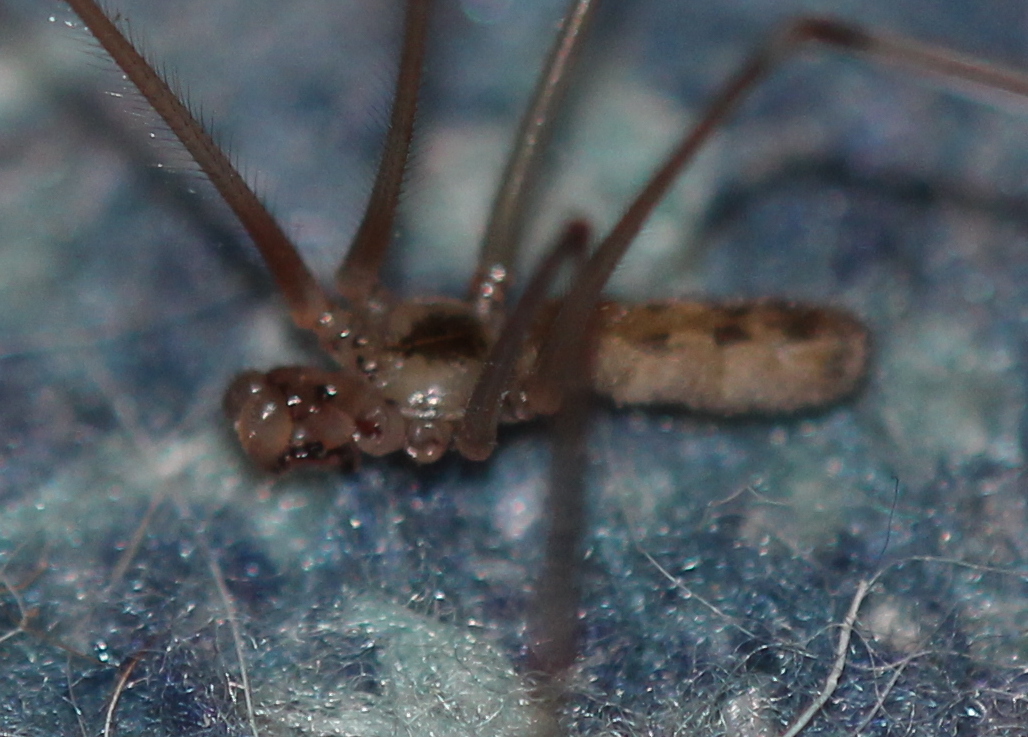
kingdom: Animalia
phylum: Arthropoda
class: Arachnida
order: Araneae
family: Pholcidae
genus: Pholcus
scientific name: Pholcus phalangioides
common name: Longbodied cellar spider
